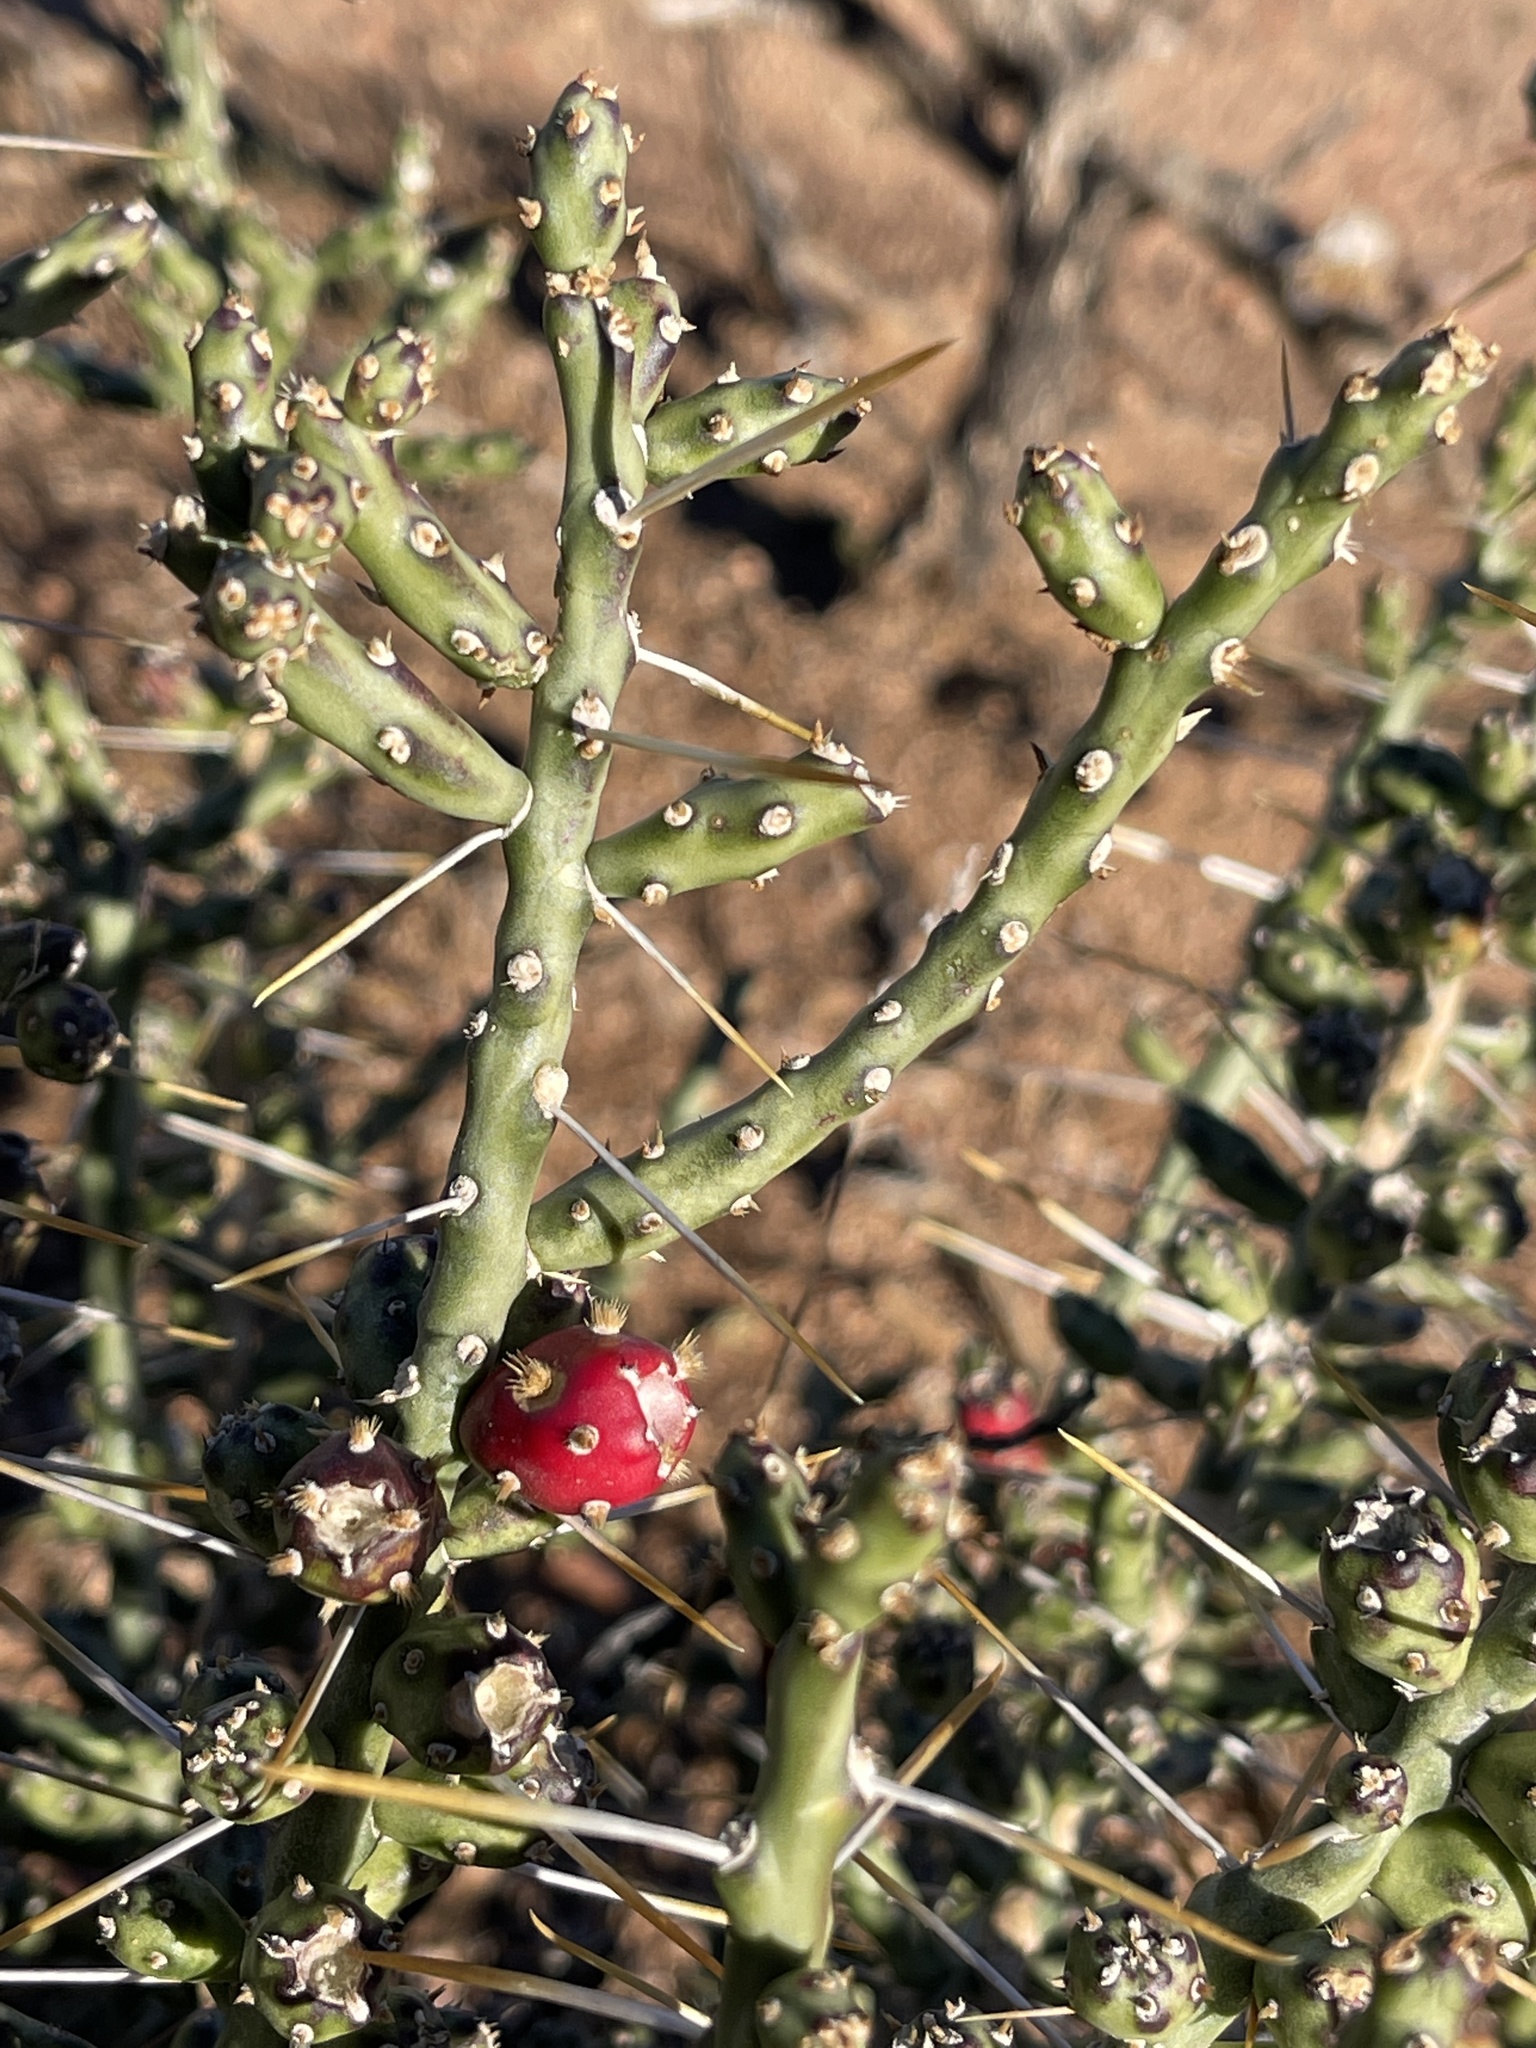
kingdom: Plantae
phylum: Tracheophyta
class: Magnoliopsida
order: Caryophyllales
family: Cactaceae
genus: Cylindropuntia
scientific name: Cylindropuntia leptocaulis
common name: Christmas cactus
